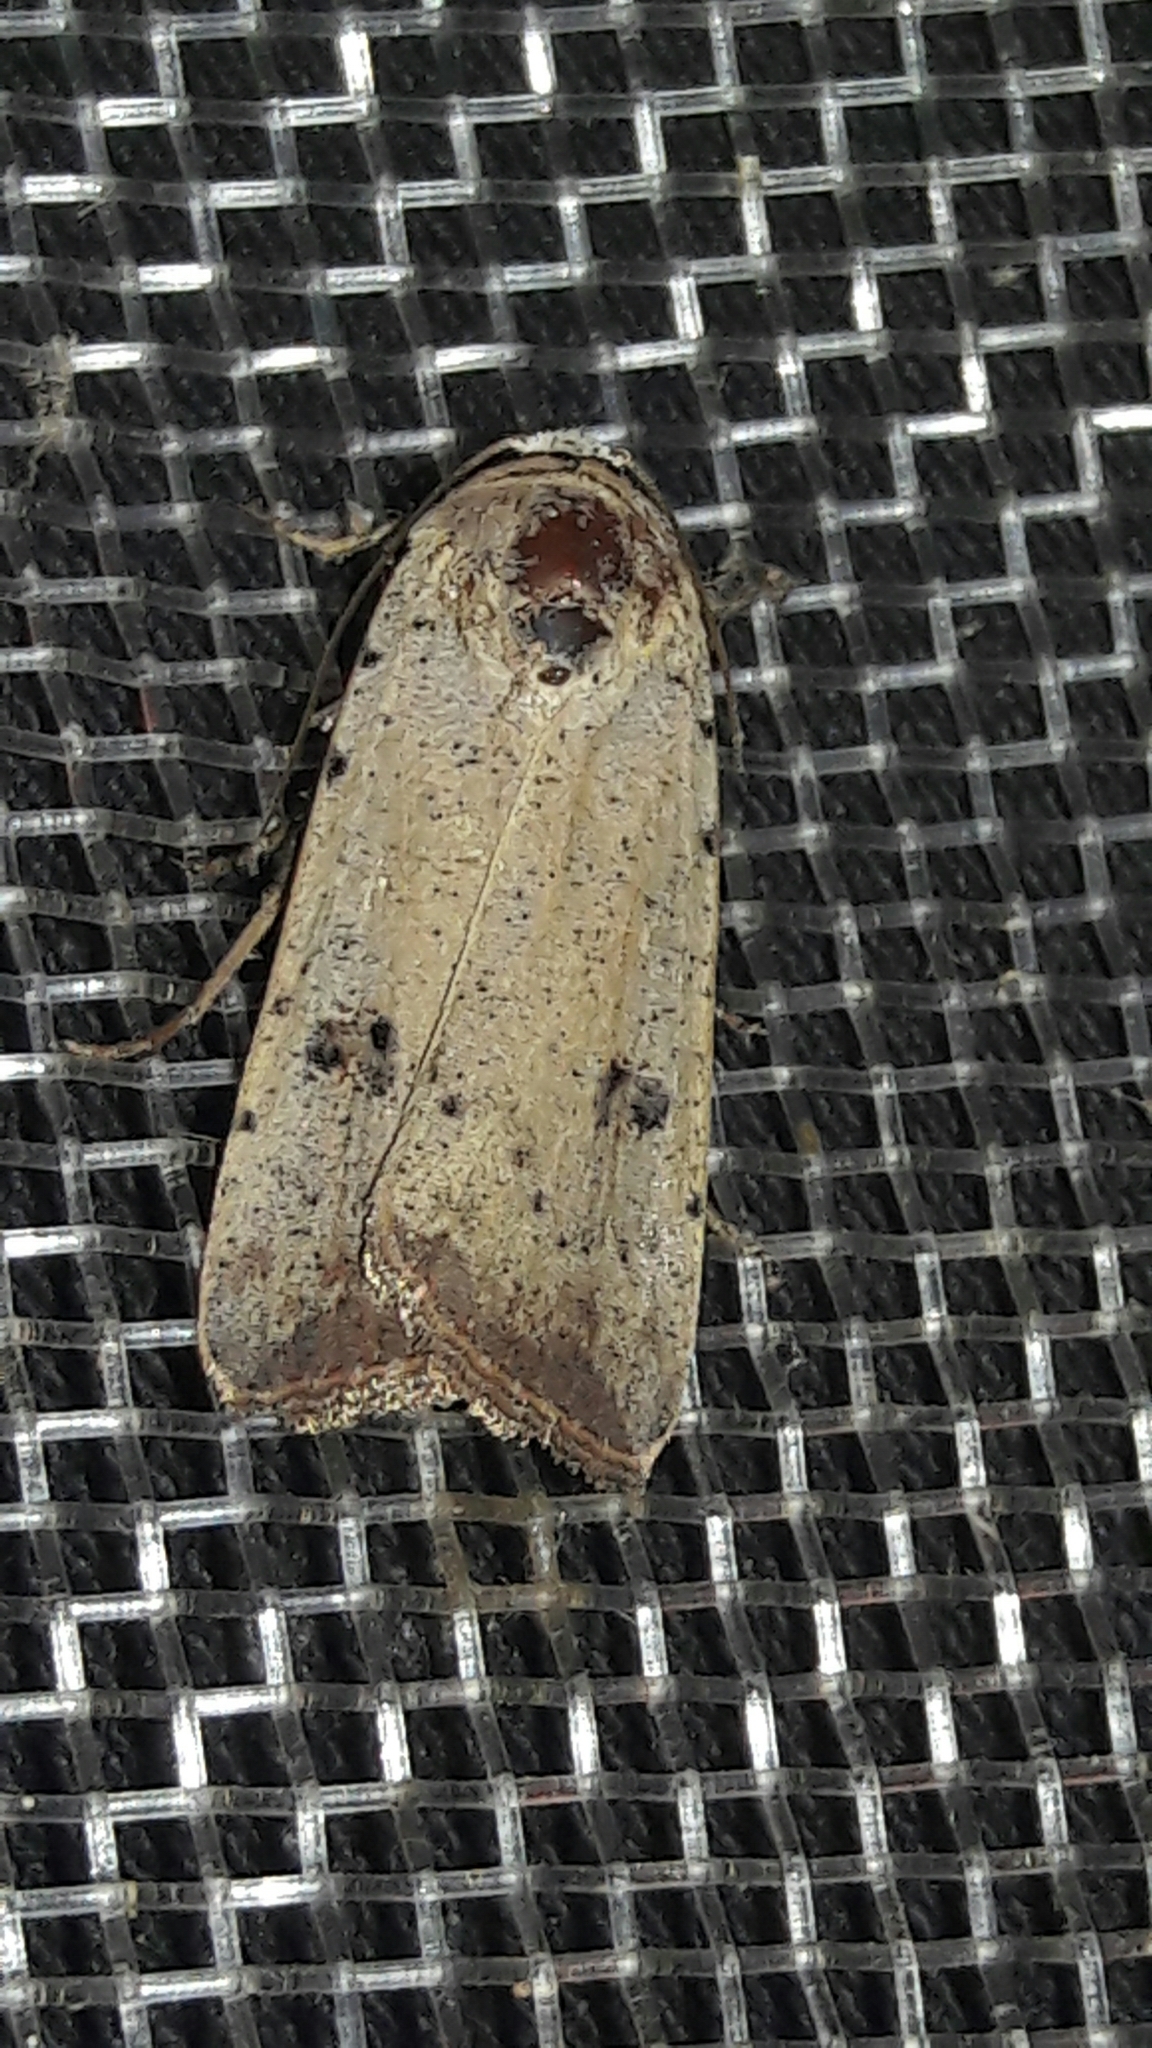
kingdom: Animalia
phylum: Arthropoda
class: Insecta
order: Lepidoptera
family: Noctuidae
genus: Anicla
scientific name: Anicla infecta
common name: Green cutworm
